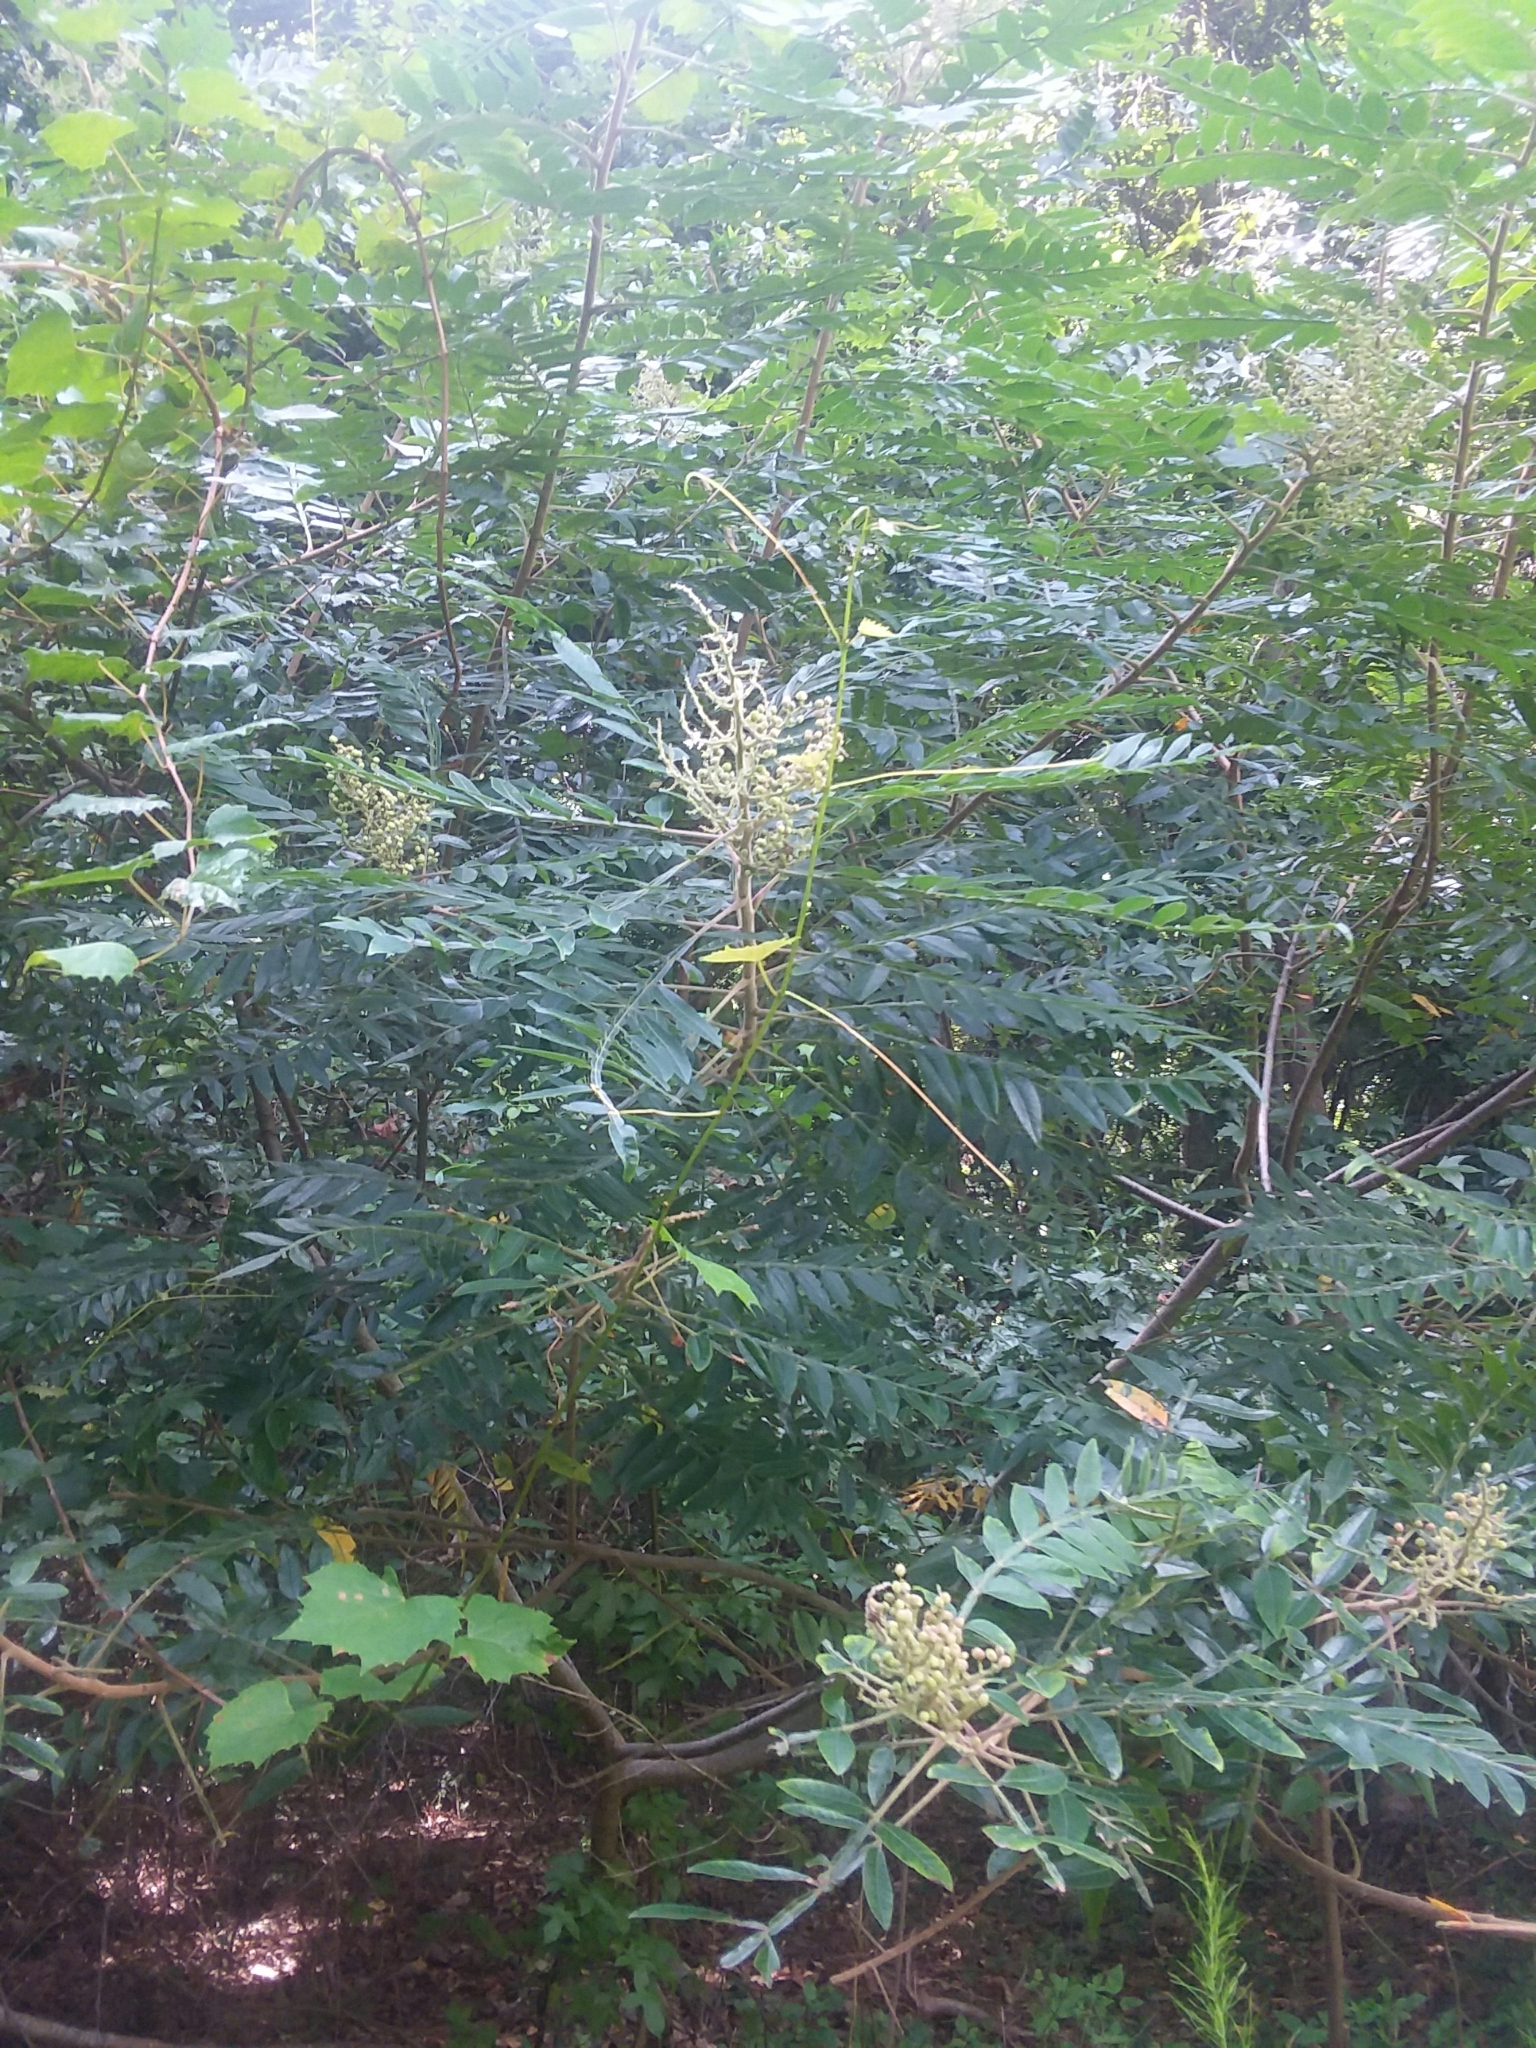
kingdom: Plantae
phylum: Tracheophyta
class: Magnoliopsida
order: Sapindales
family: Anacardiaceae
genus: Rhus
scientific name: Rhus copallina
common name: Shining sumac
